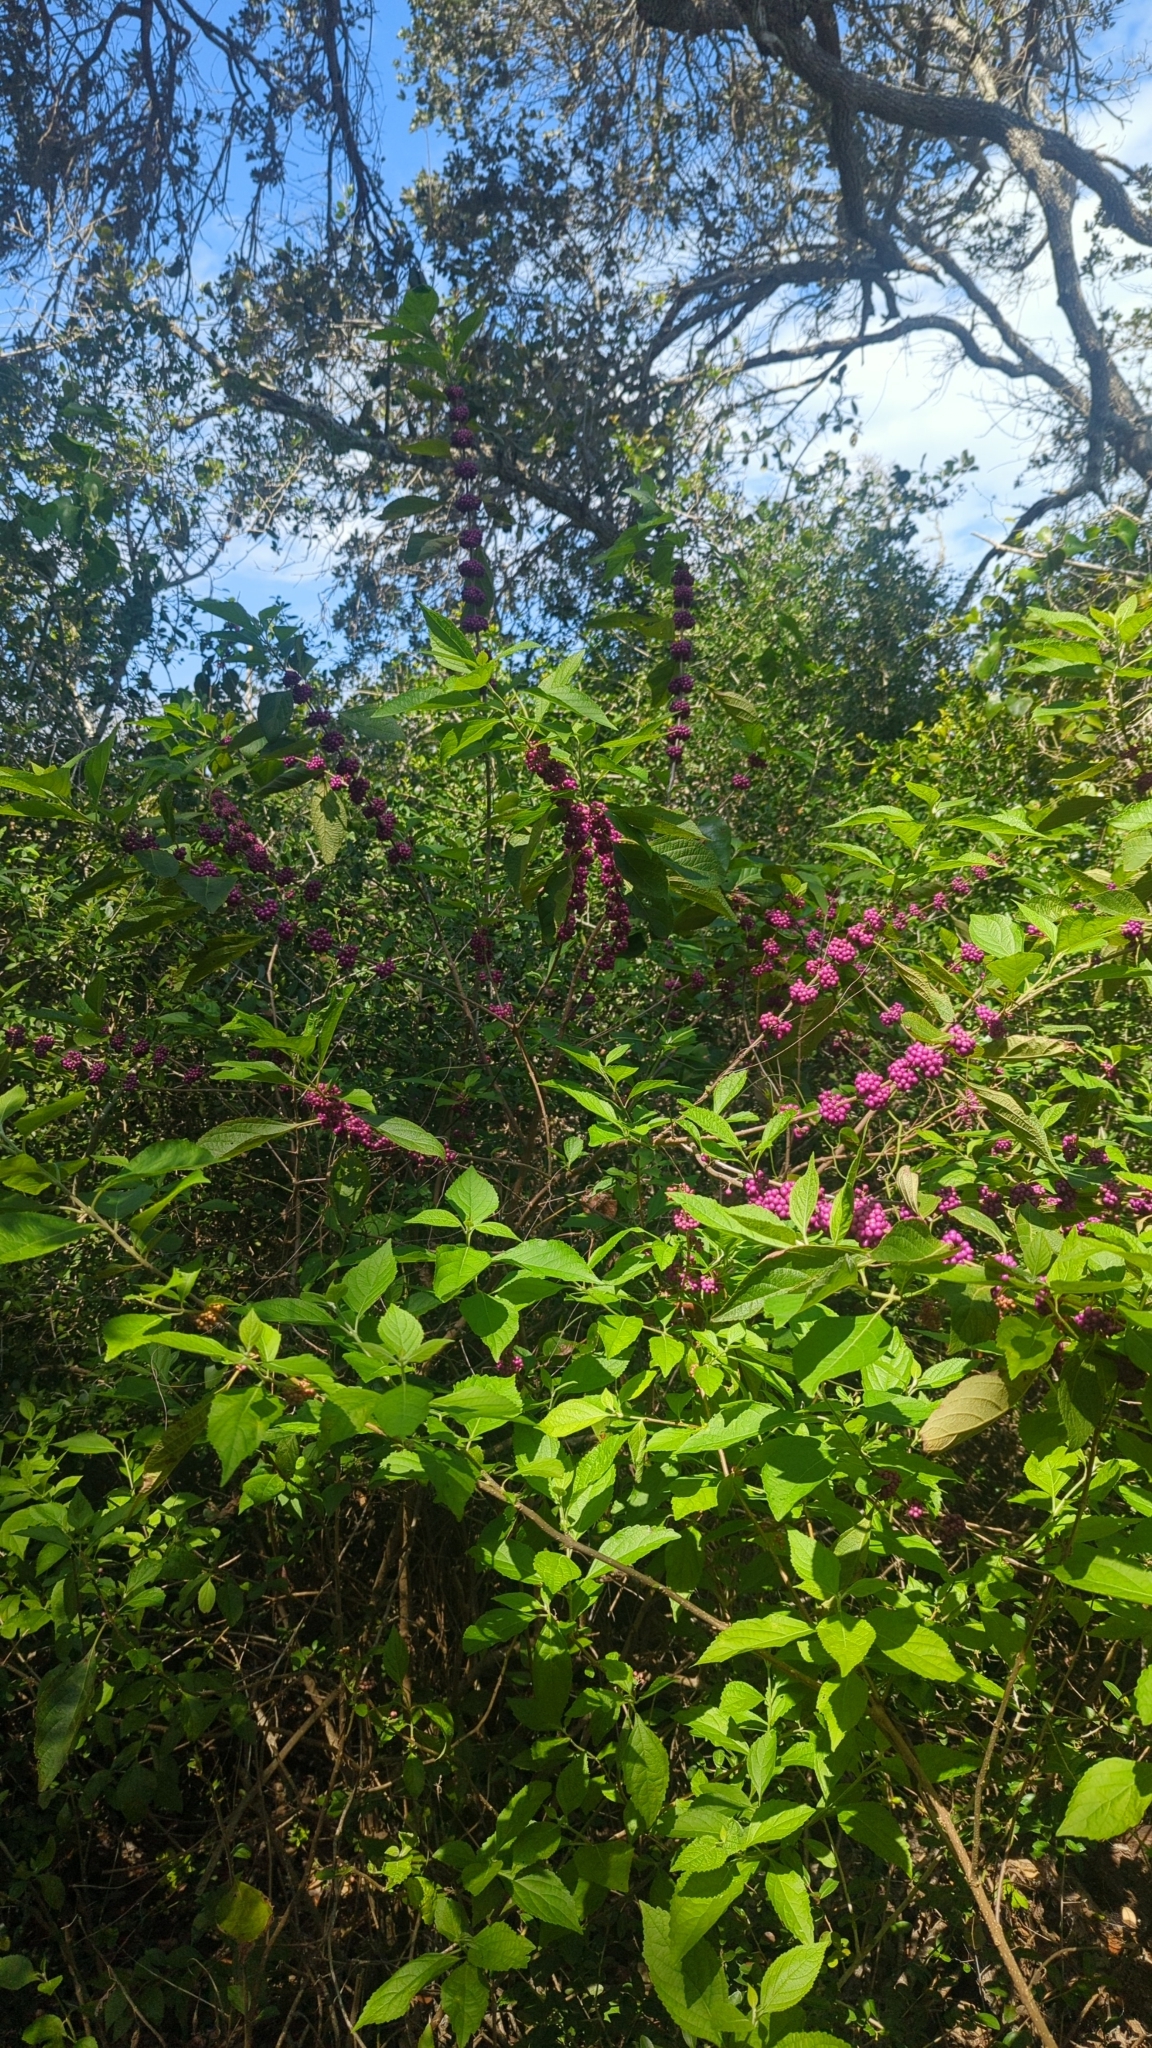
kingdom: Plantae
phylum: Tracheophyta
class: Magnoliopsida
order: Lamiales
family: Lamiaceae
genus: Callicarpa
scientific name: Callicarpa americana
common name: American beautyberry
